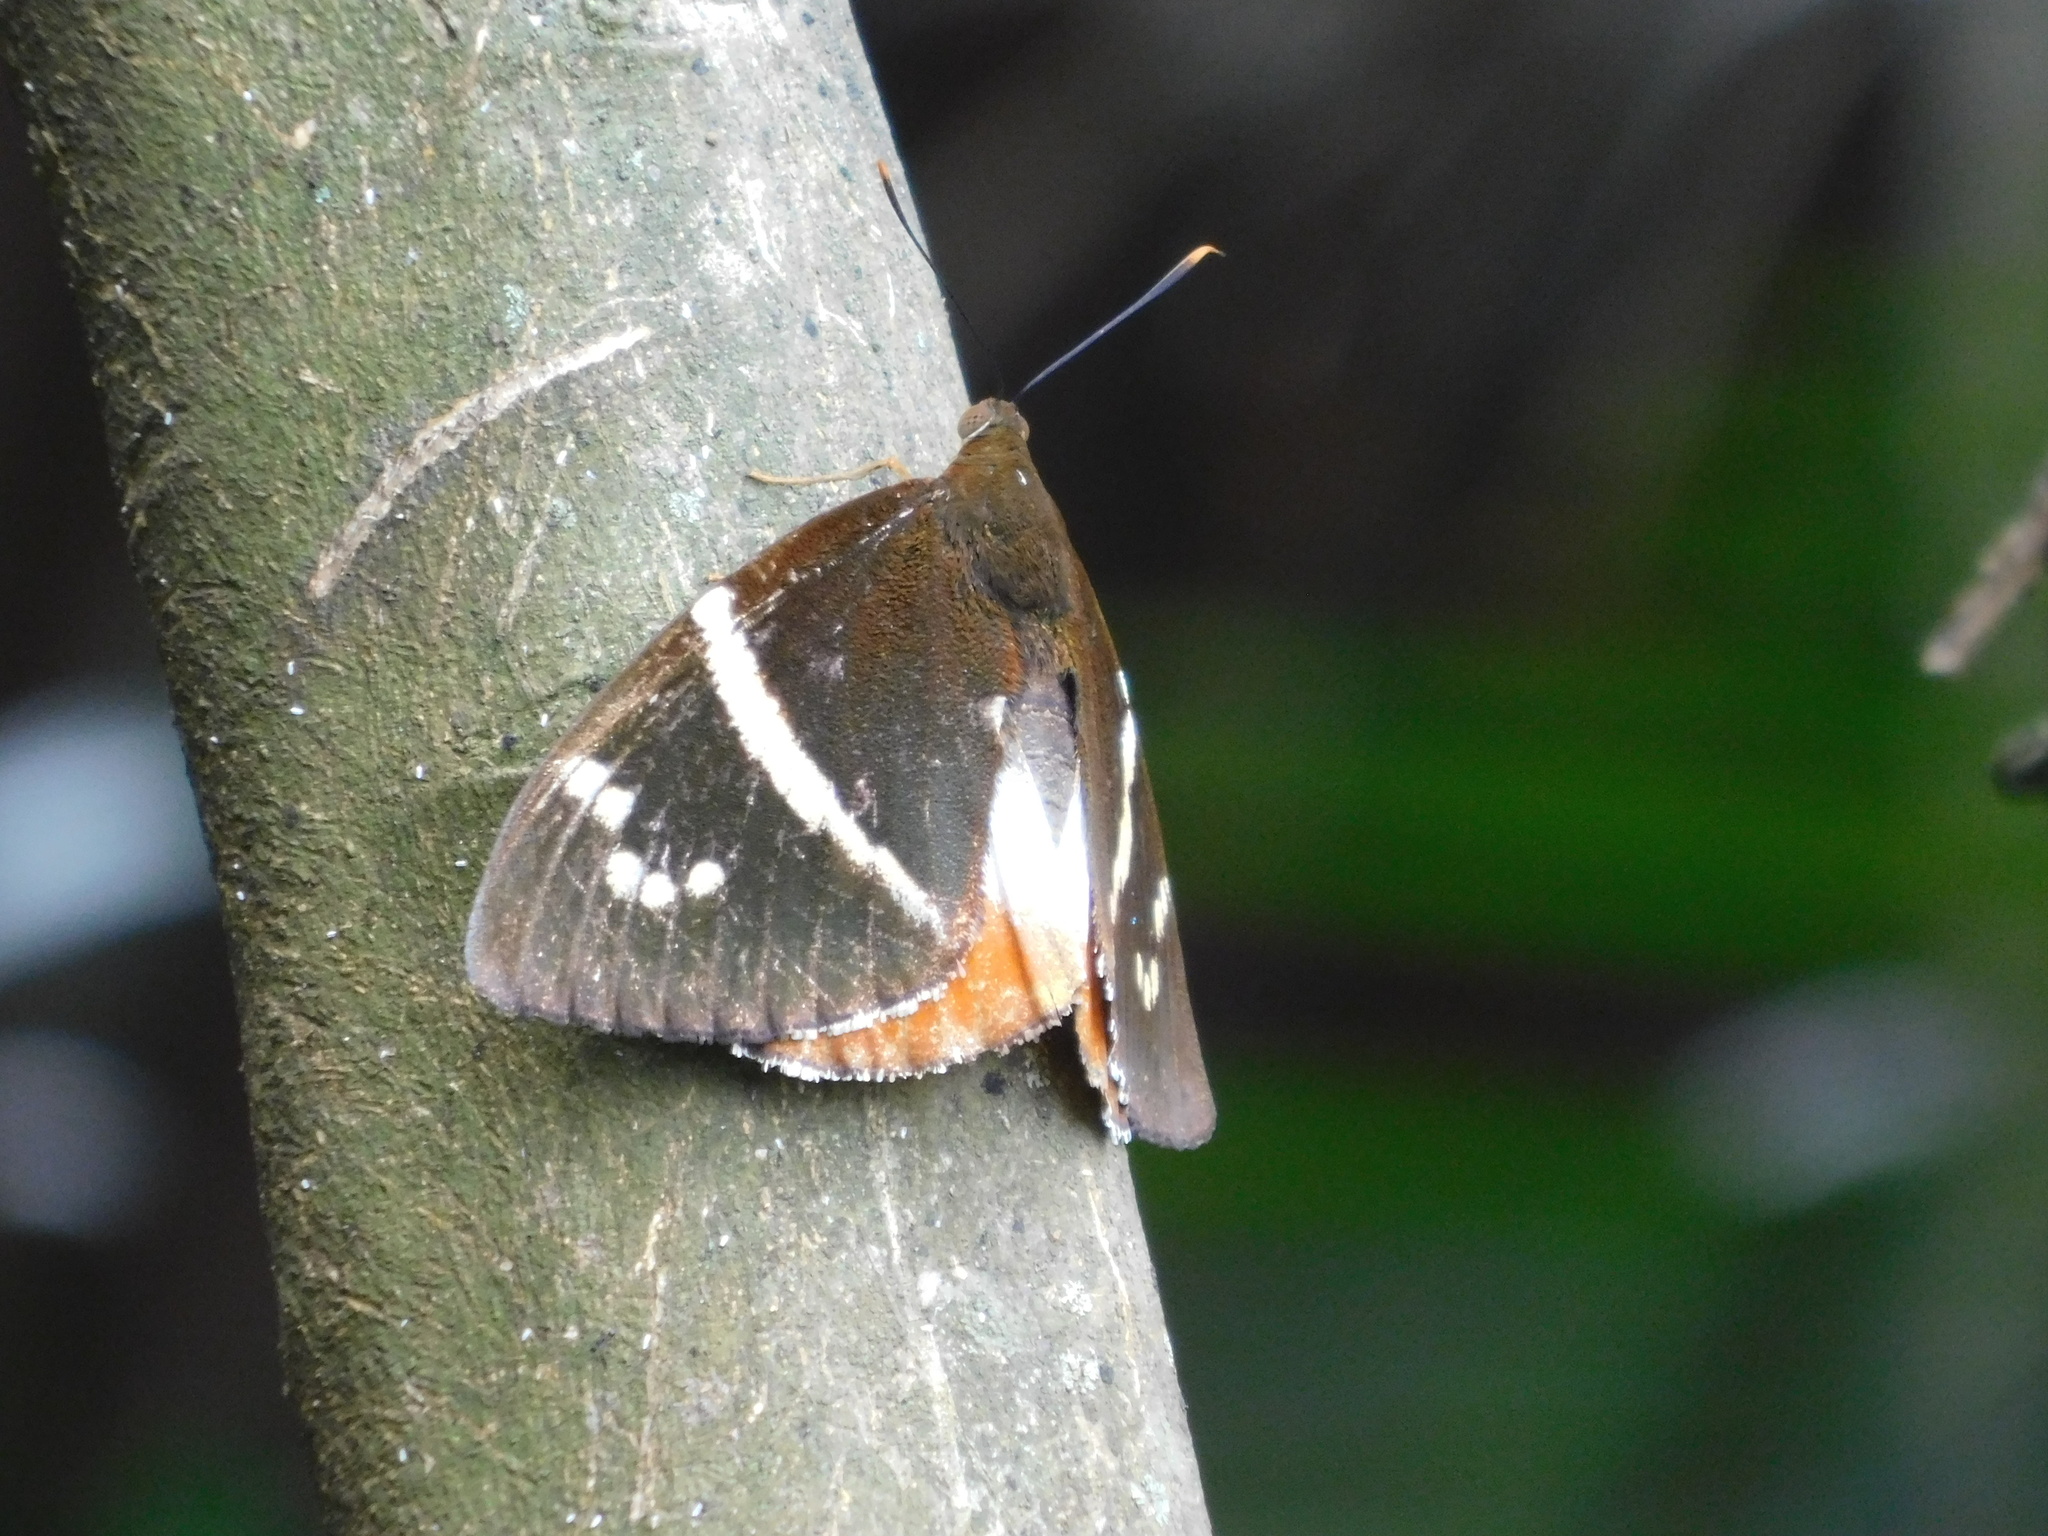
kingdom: Animalia
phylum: Arthropoda
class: Insecta
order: Lepidoptera
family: Castniidae
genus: Castniomera
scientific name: Castniomera drucei
